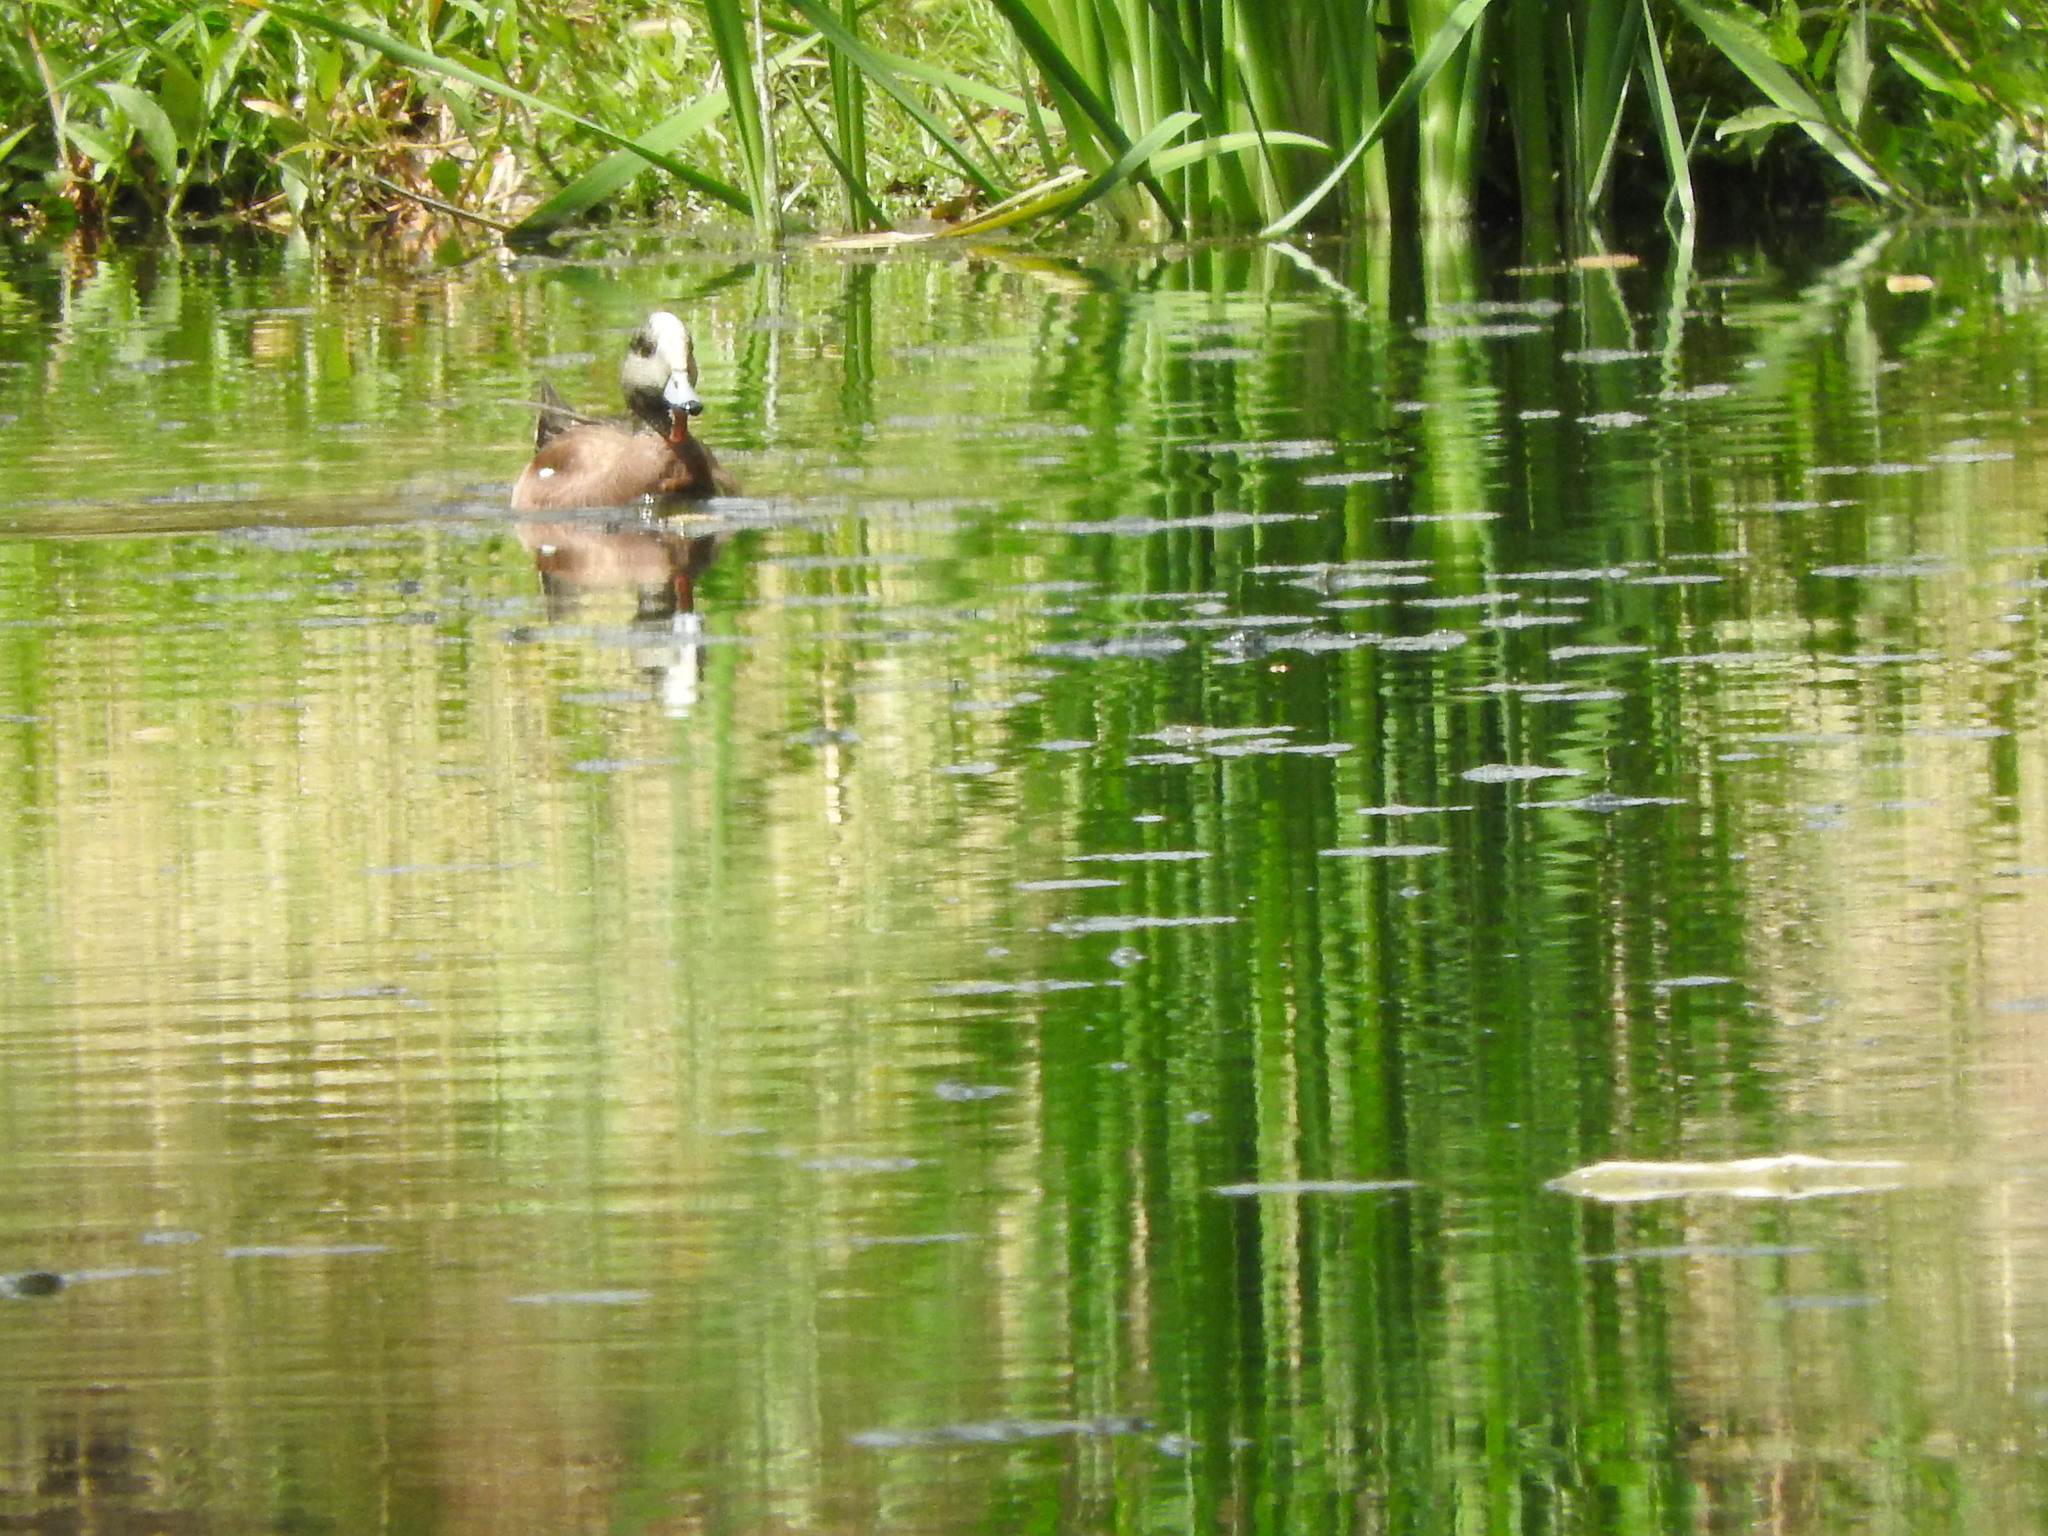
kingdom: Animalia
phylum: Chordata
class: Aves
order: Anseriformes
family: Anatidae
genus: Mareca
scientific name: Mareca americana
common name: American wigeon
